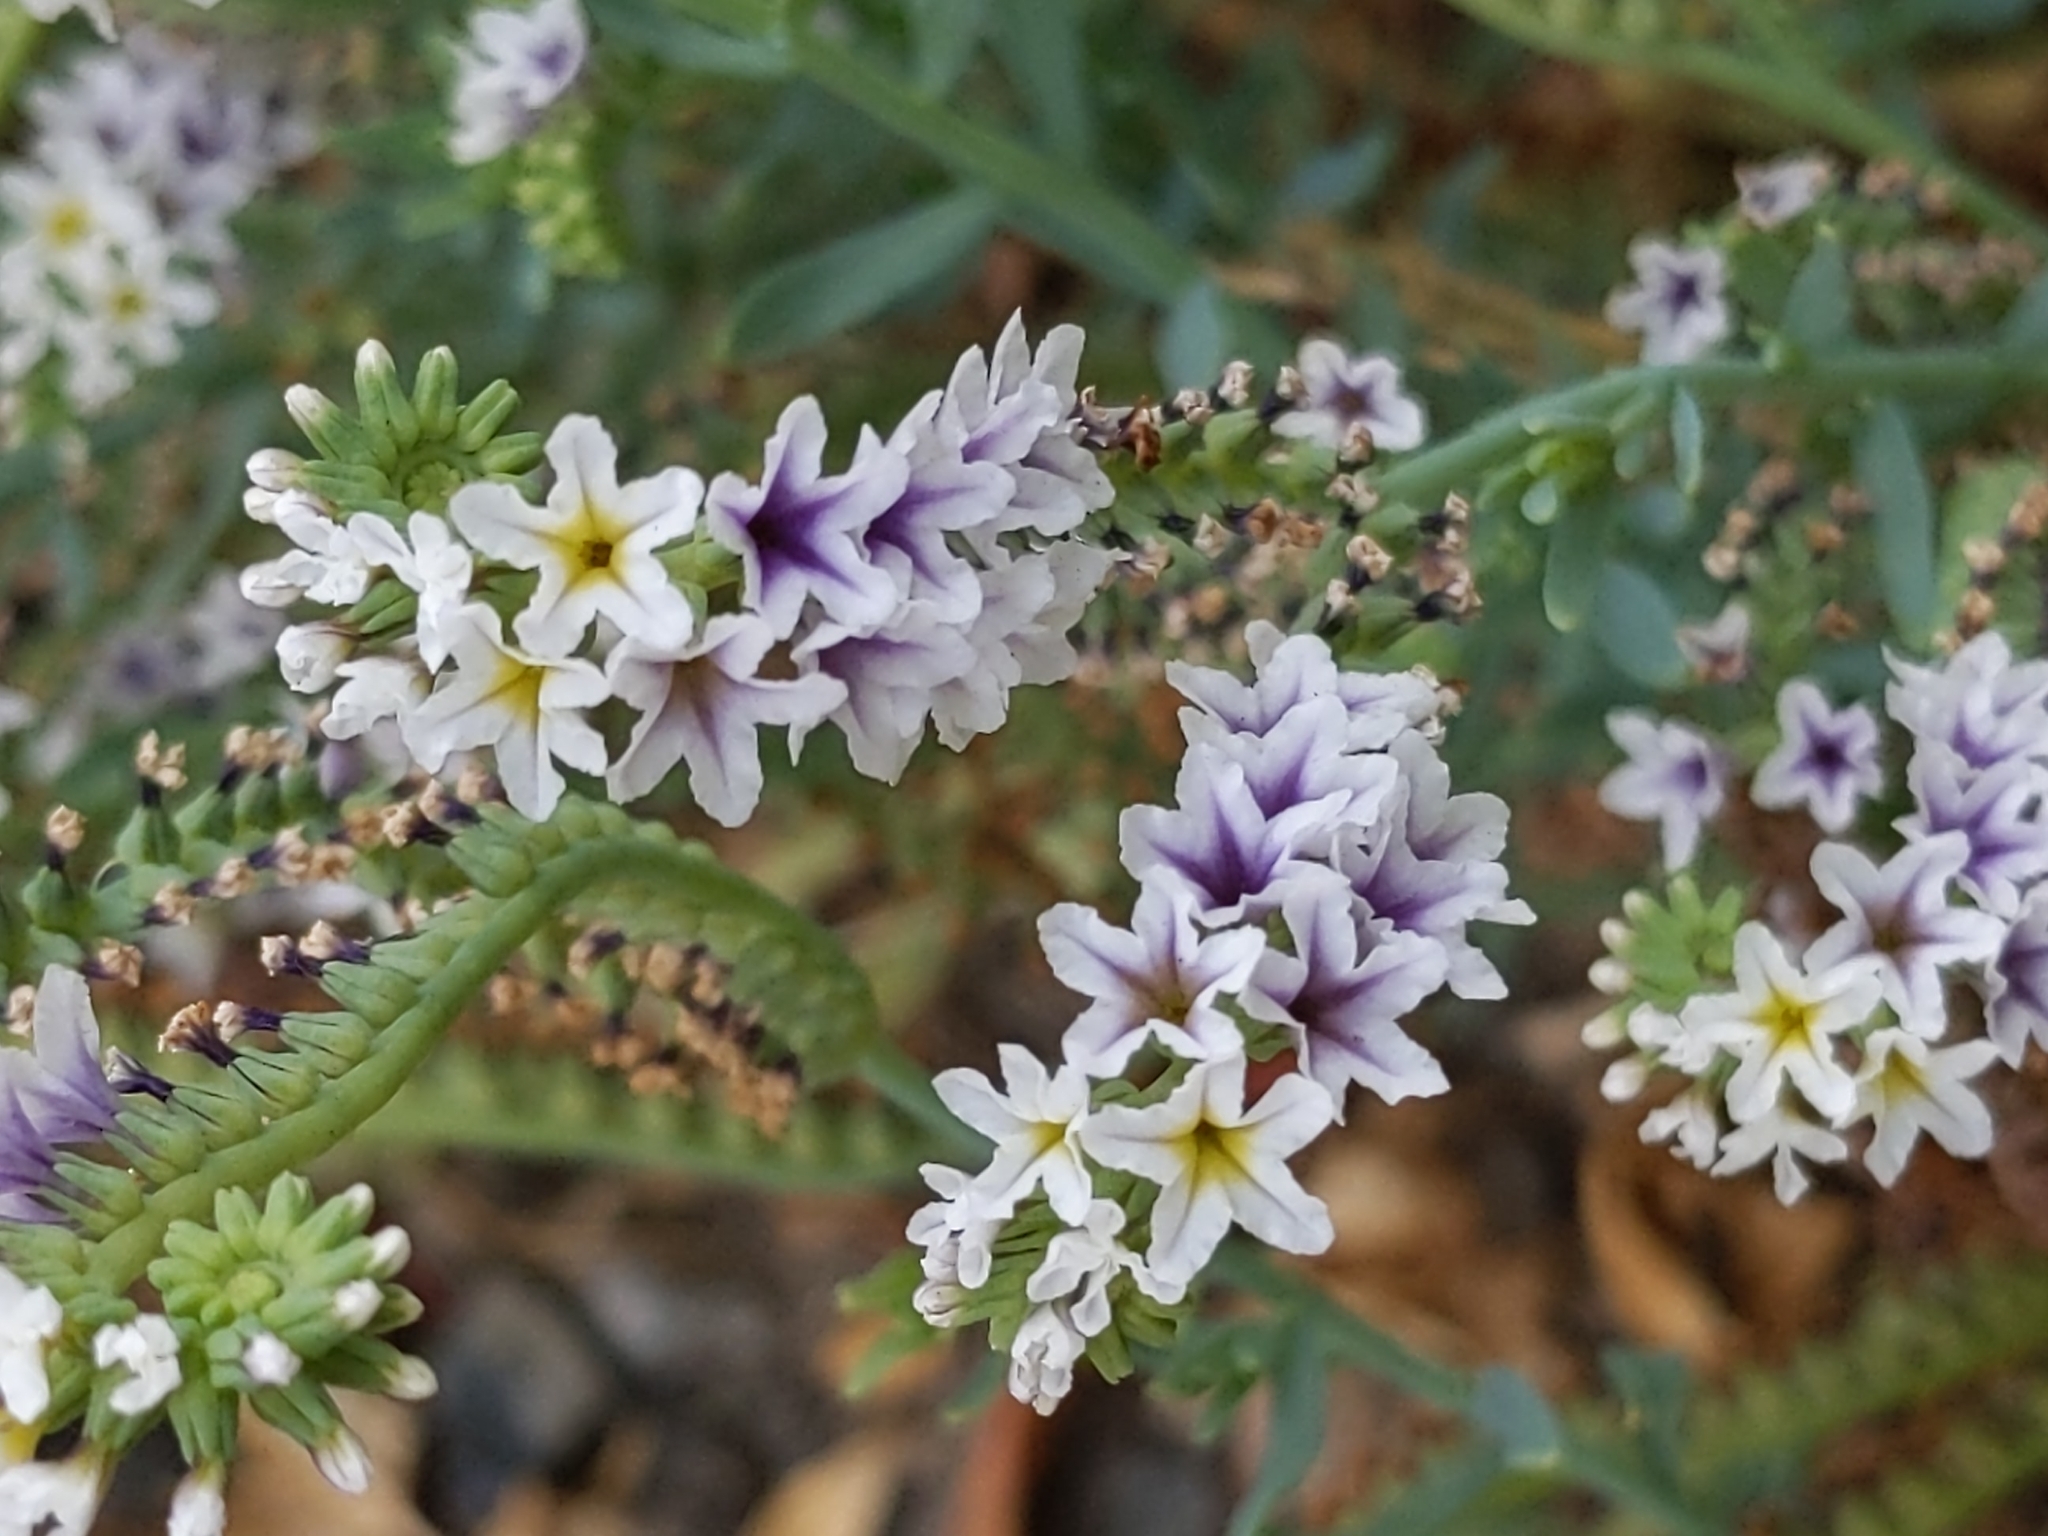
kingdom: Plantae
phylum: Tracheophyta
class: Magnoliopsida
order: Boraginales
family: Heliotropiaceae
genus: Heliotropium
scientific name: Heliotropium curassavicum
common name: Seaside heliotrope
